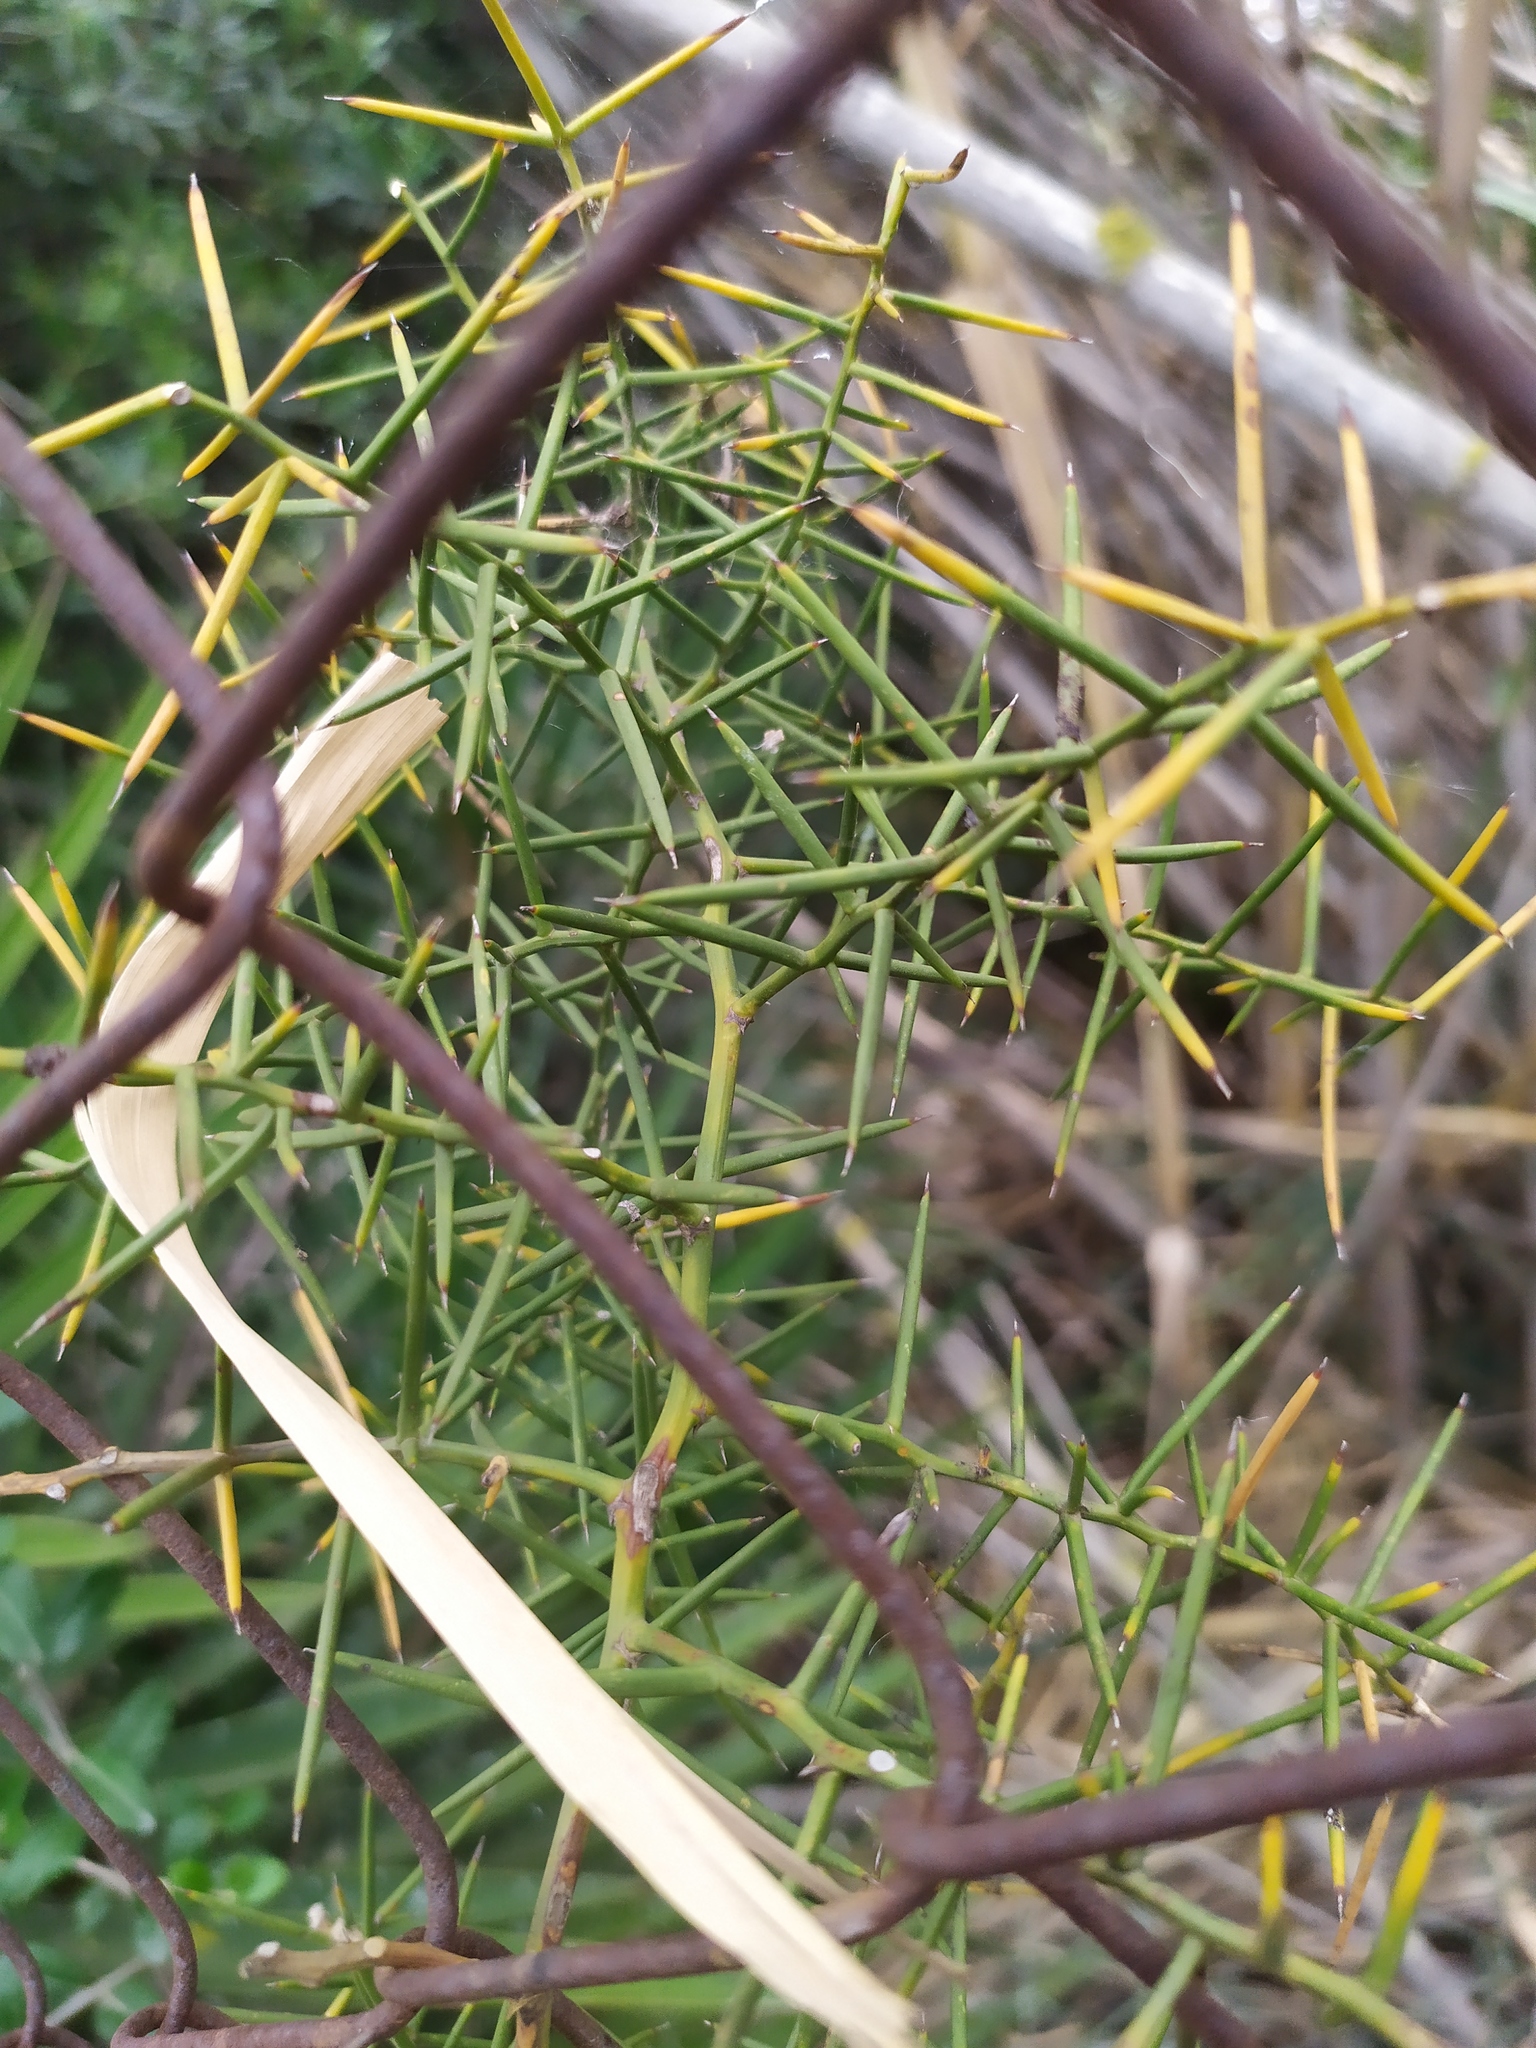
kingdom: Plantae
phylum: Tracheophyta
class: Liliopsida
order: Asparagales
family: Asparagaceae
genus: Asparagus
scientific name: Asparagus horridus
